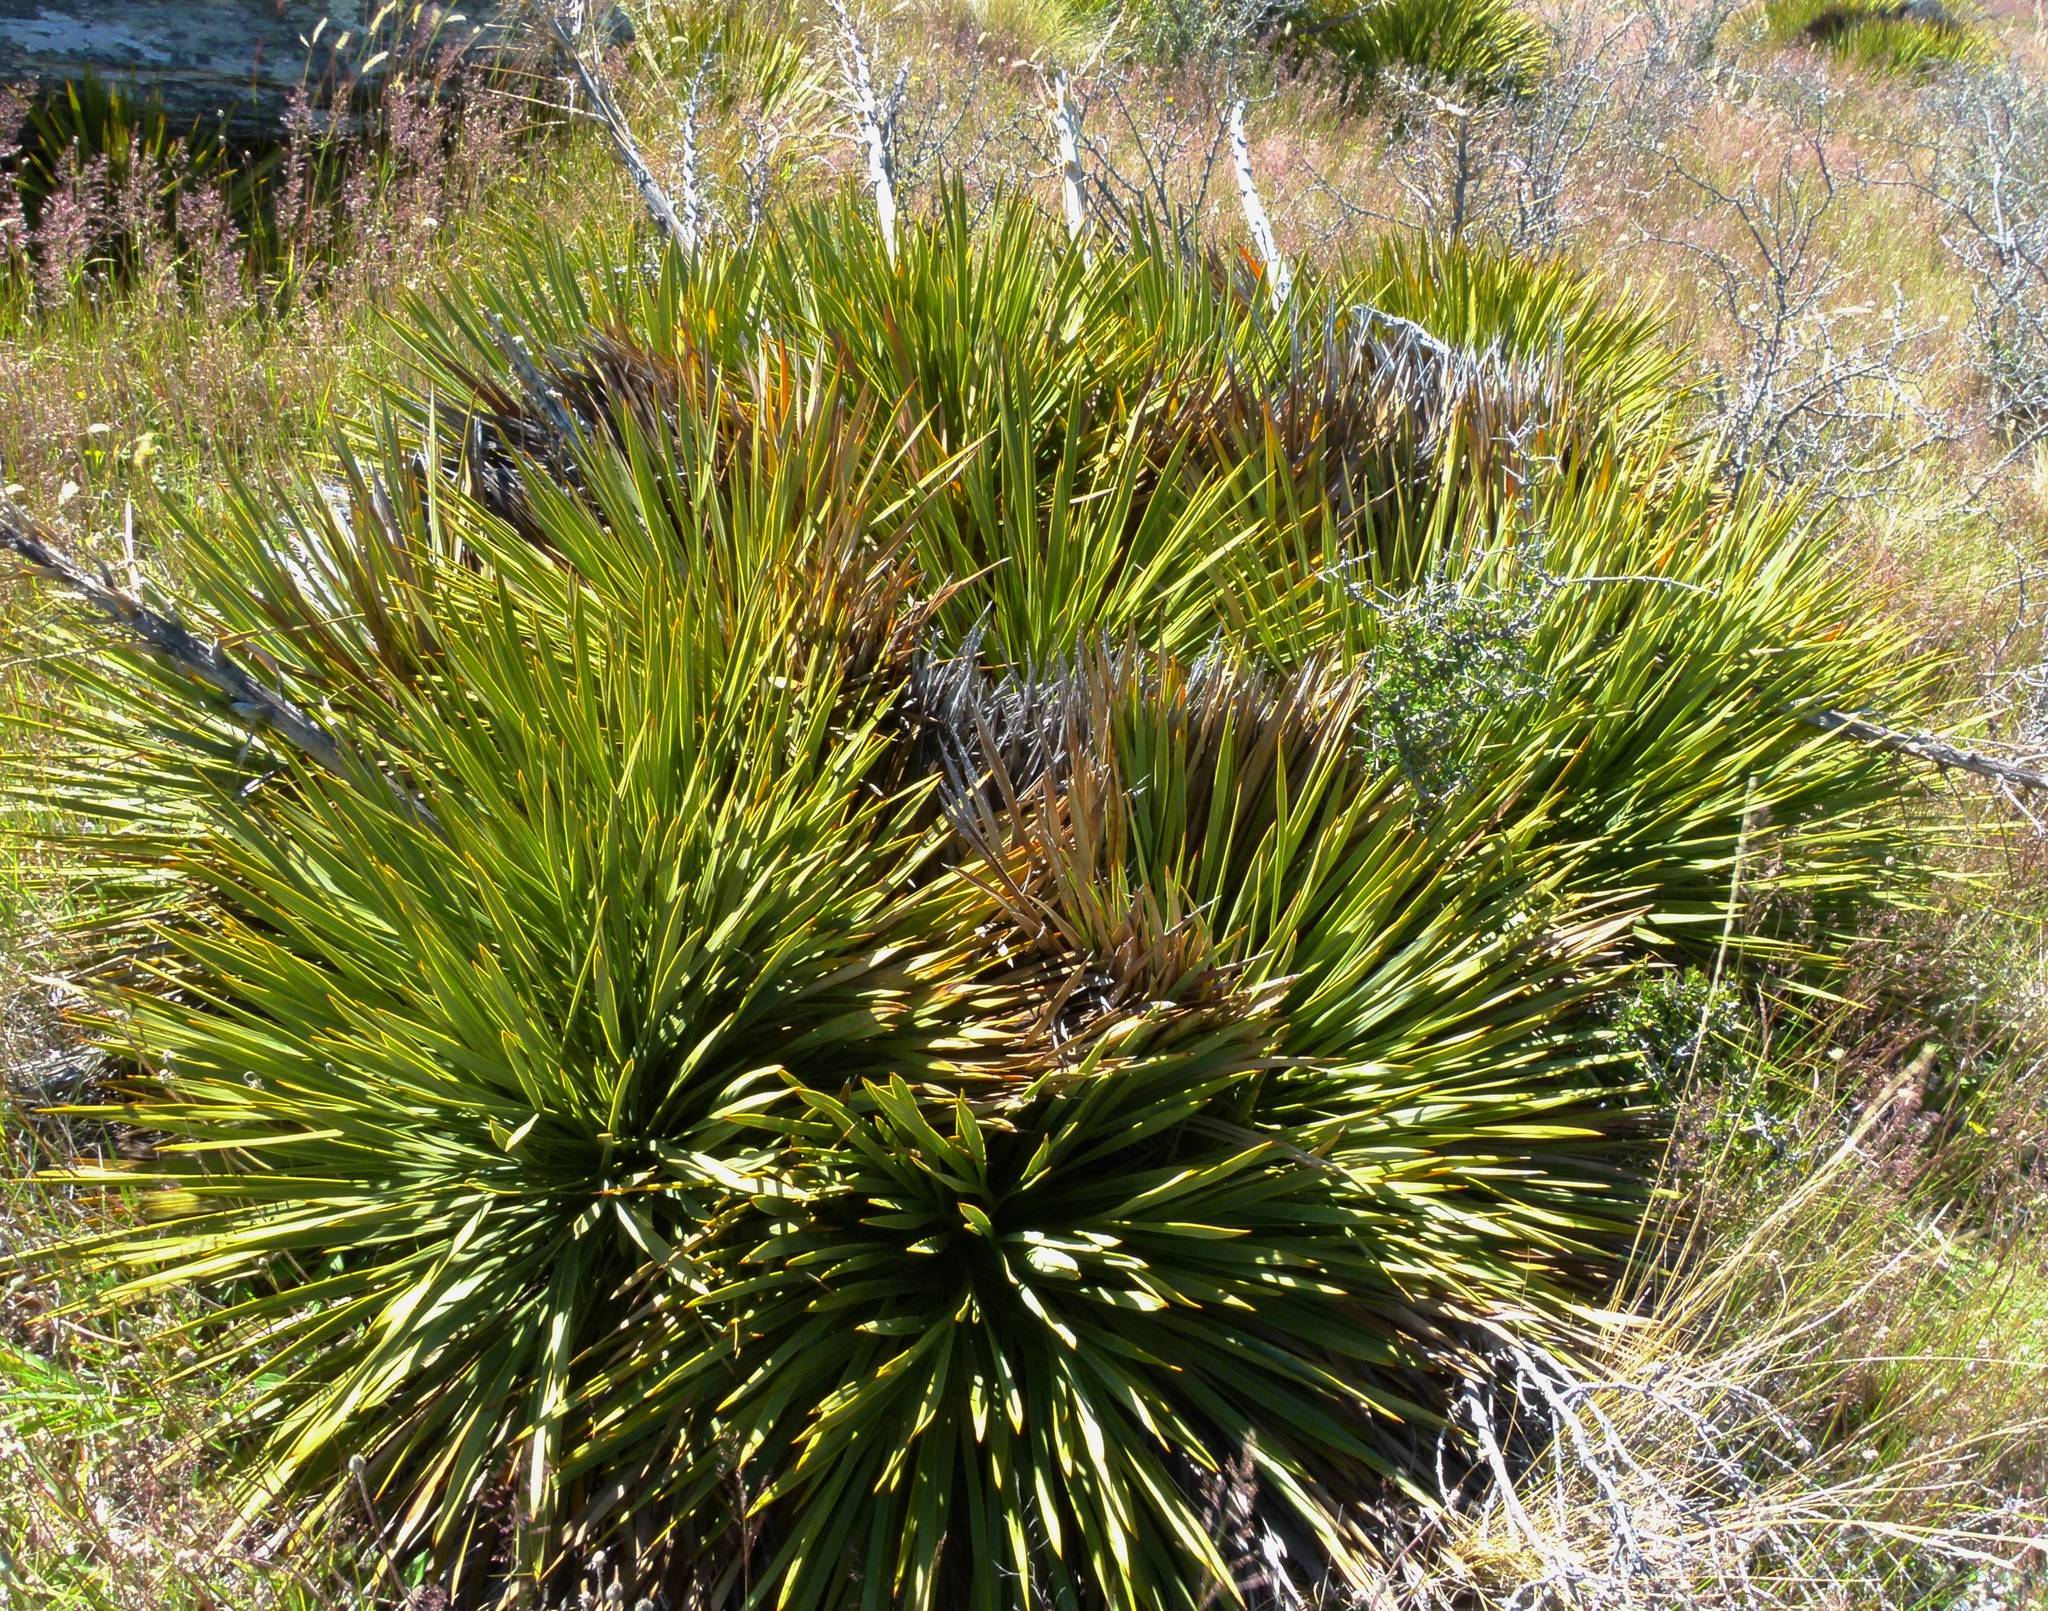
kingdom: Plantae
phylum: Tracheophyta
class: Magnoliopsida
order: Apiales
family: Apiaceae
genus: Aciphylla
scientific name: Aciphylla aurea
